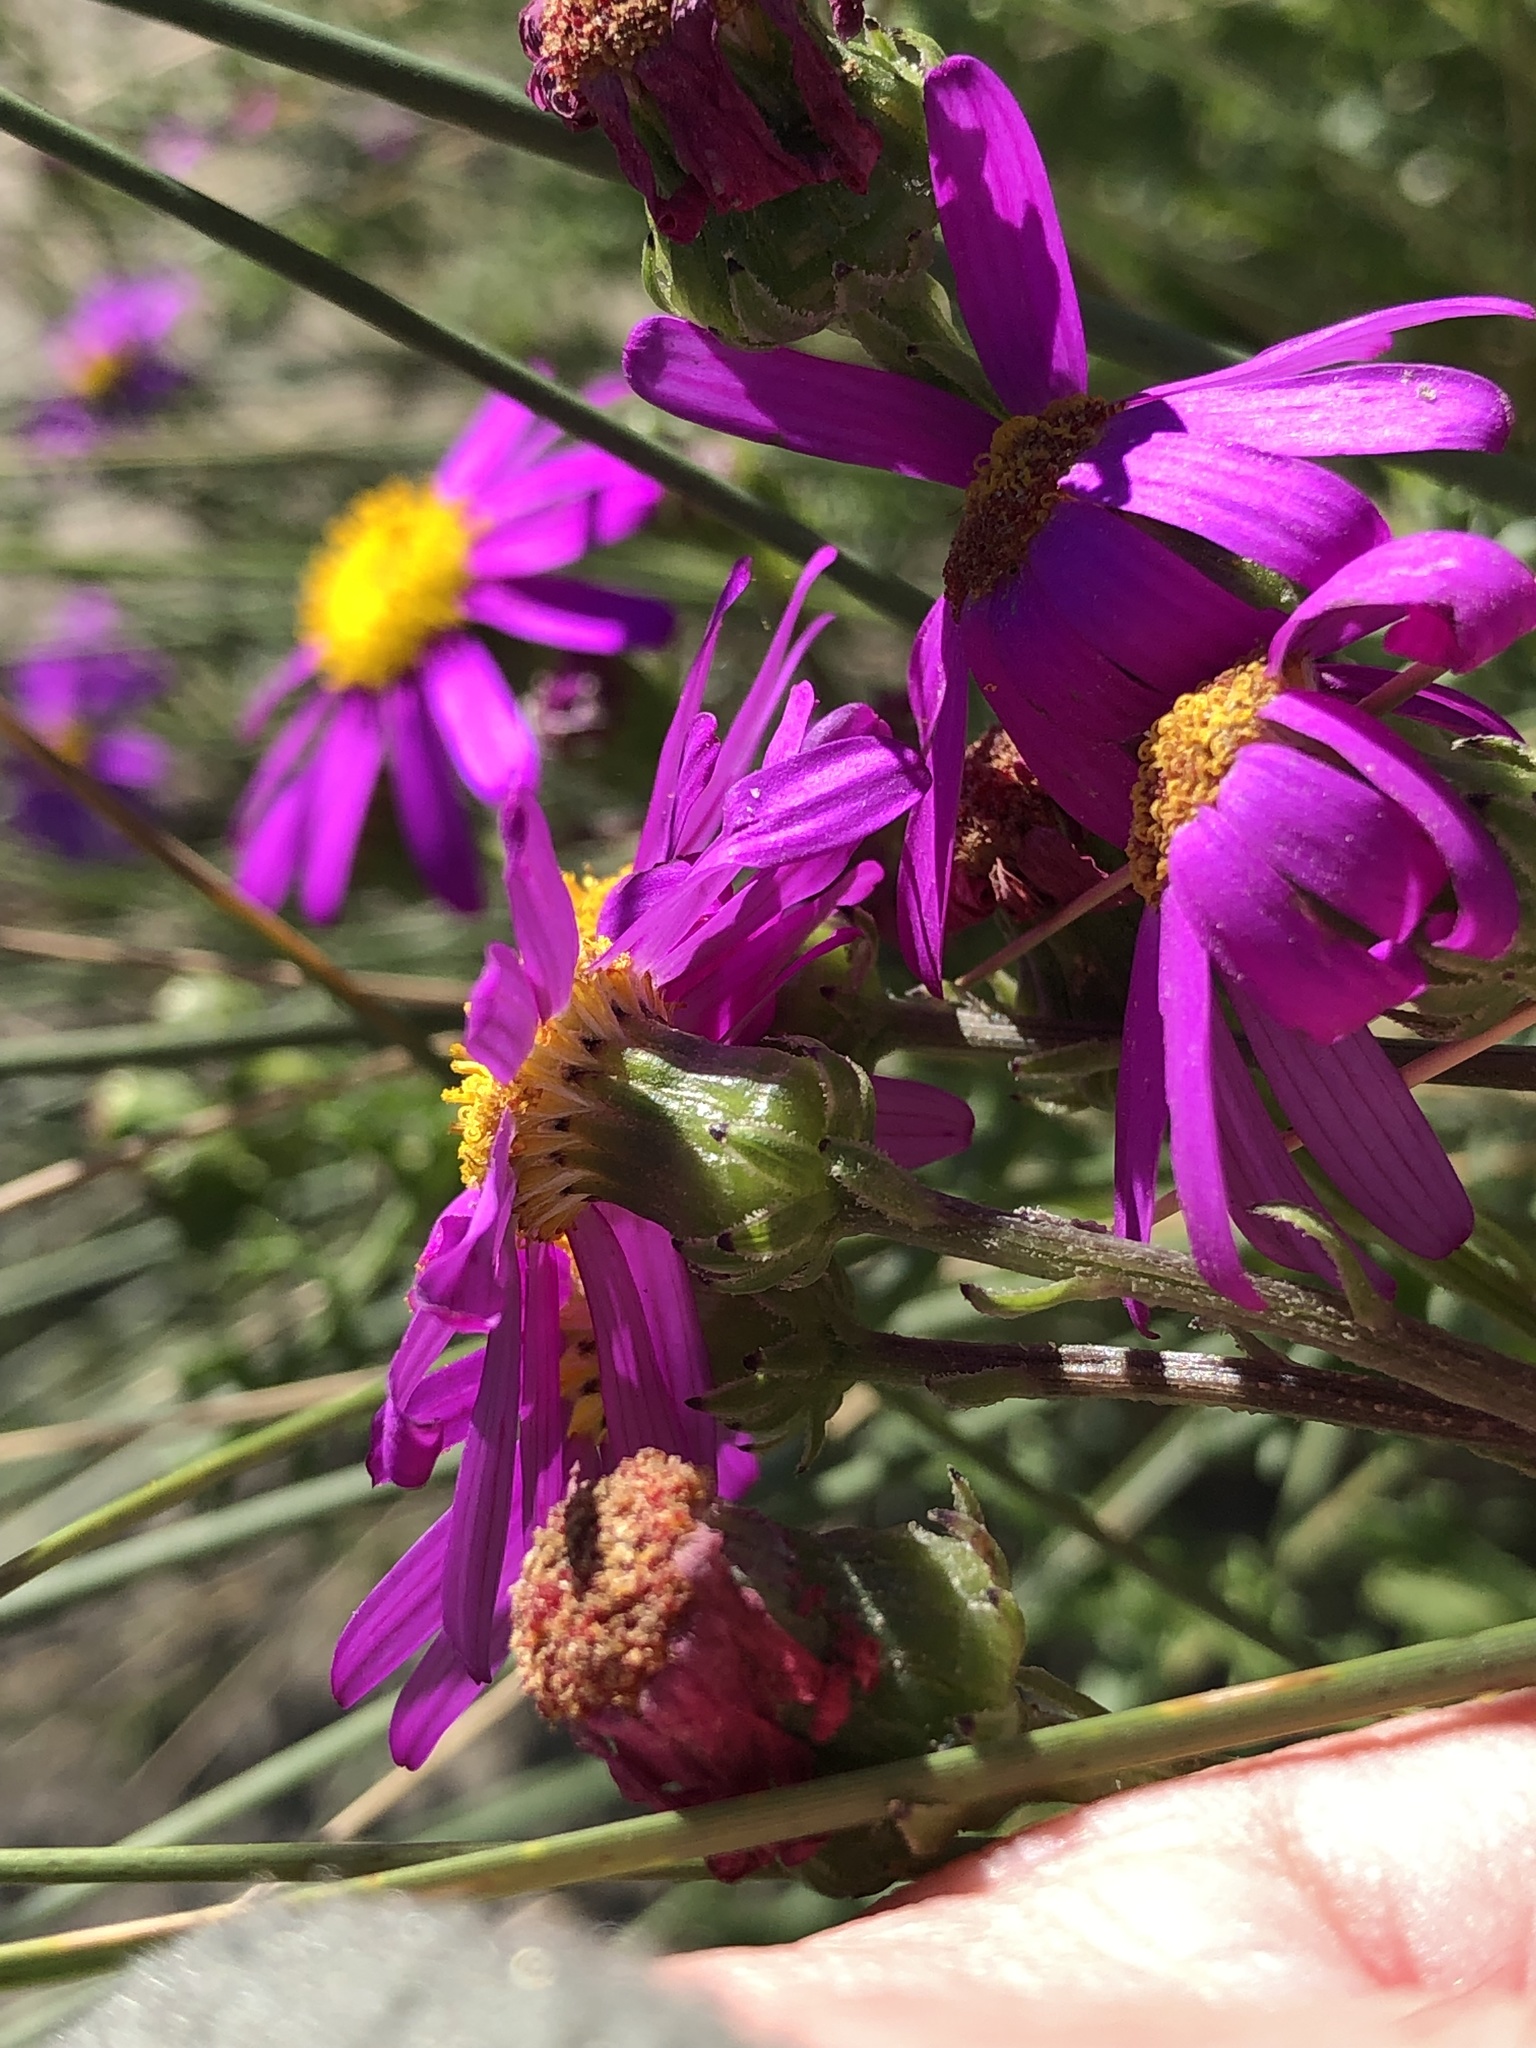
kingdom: Plantae
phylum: Tracheophyta
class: Magnoliopsida
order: Asterales
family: Asteraceae
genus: Senecio
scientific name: Senecio elegans
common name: Purple groundsel
